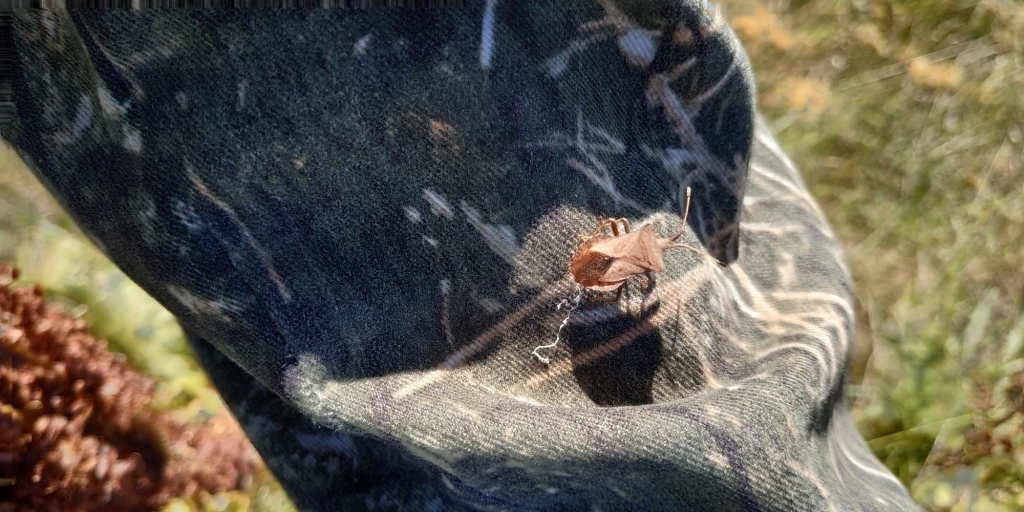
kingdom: Animalia
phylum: Arthropoda
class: Insecta
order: Hemiptera
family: Coreidae
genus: Coreus
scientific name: Coreus marginatus
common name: Dock bug
